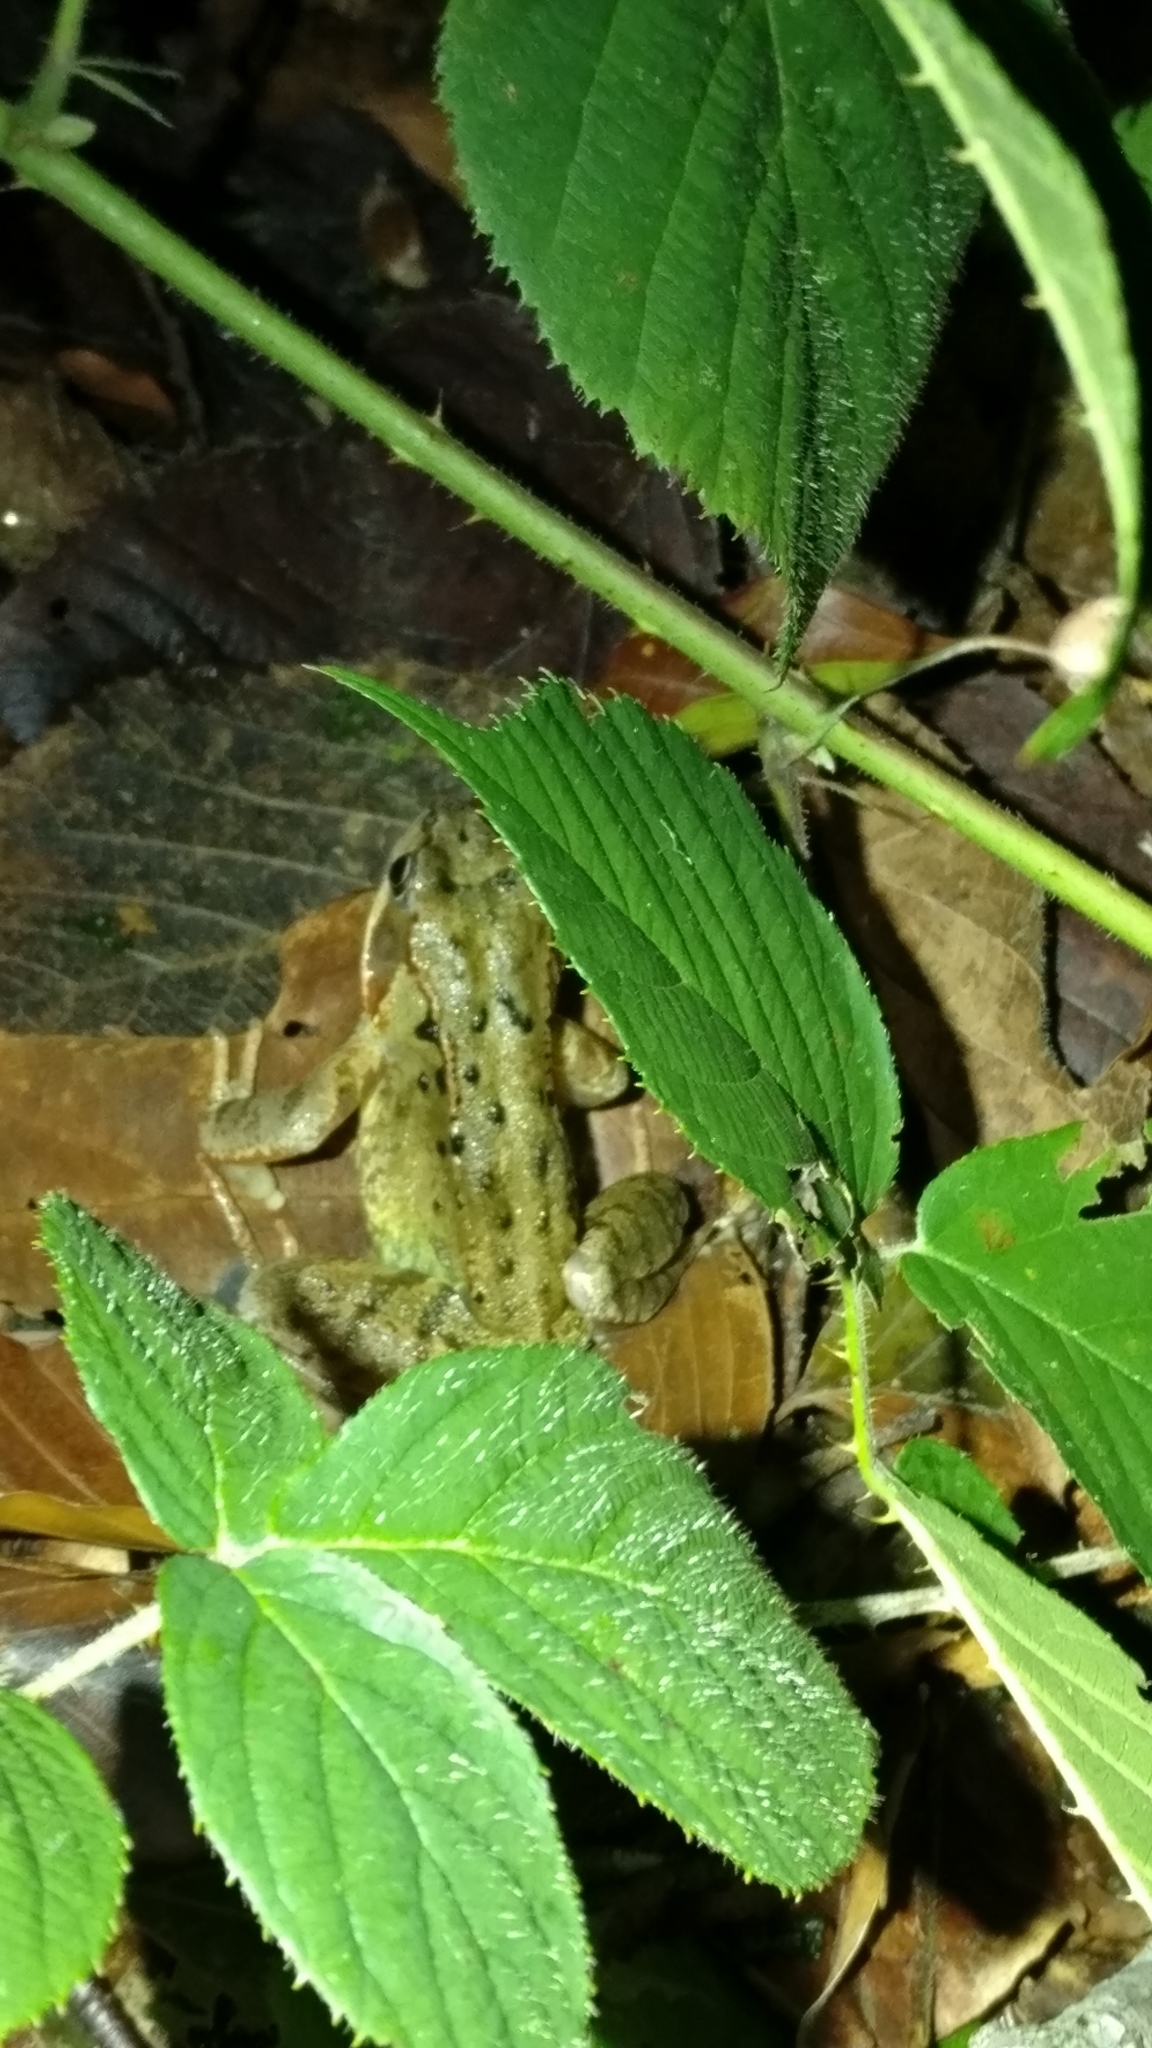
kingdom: Animalia
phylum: Chordata
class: Amphibia
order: Anura
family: Ranidae
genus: Rana
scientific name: Rana temporaria
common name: Common frog
